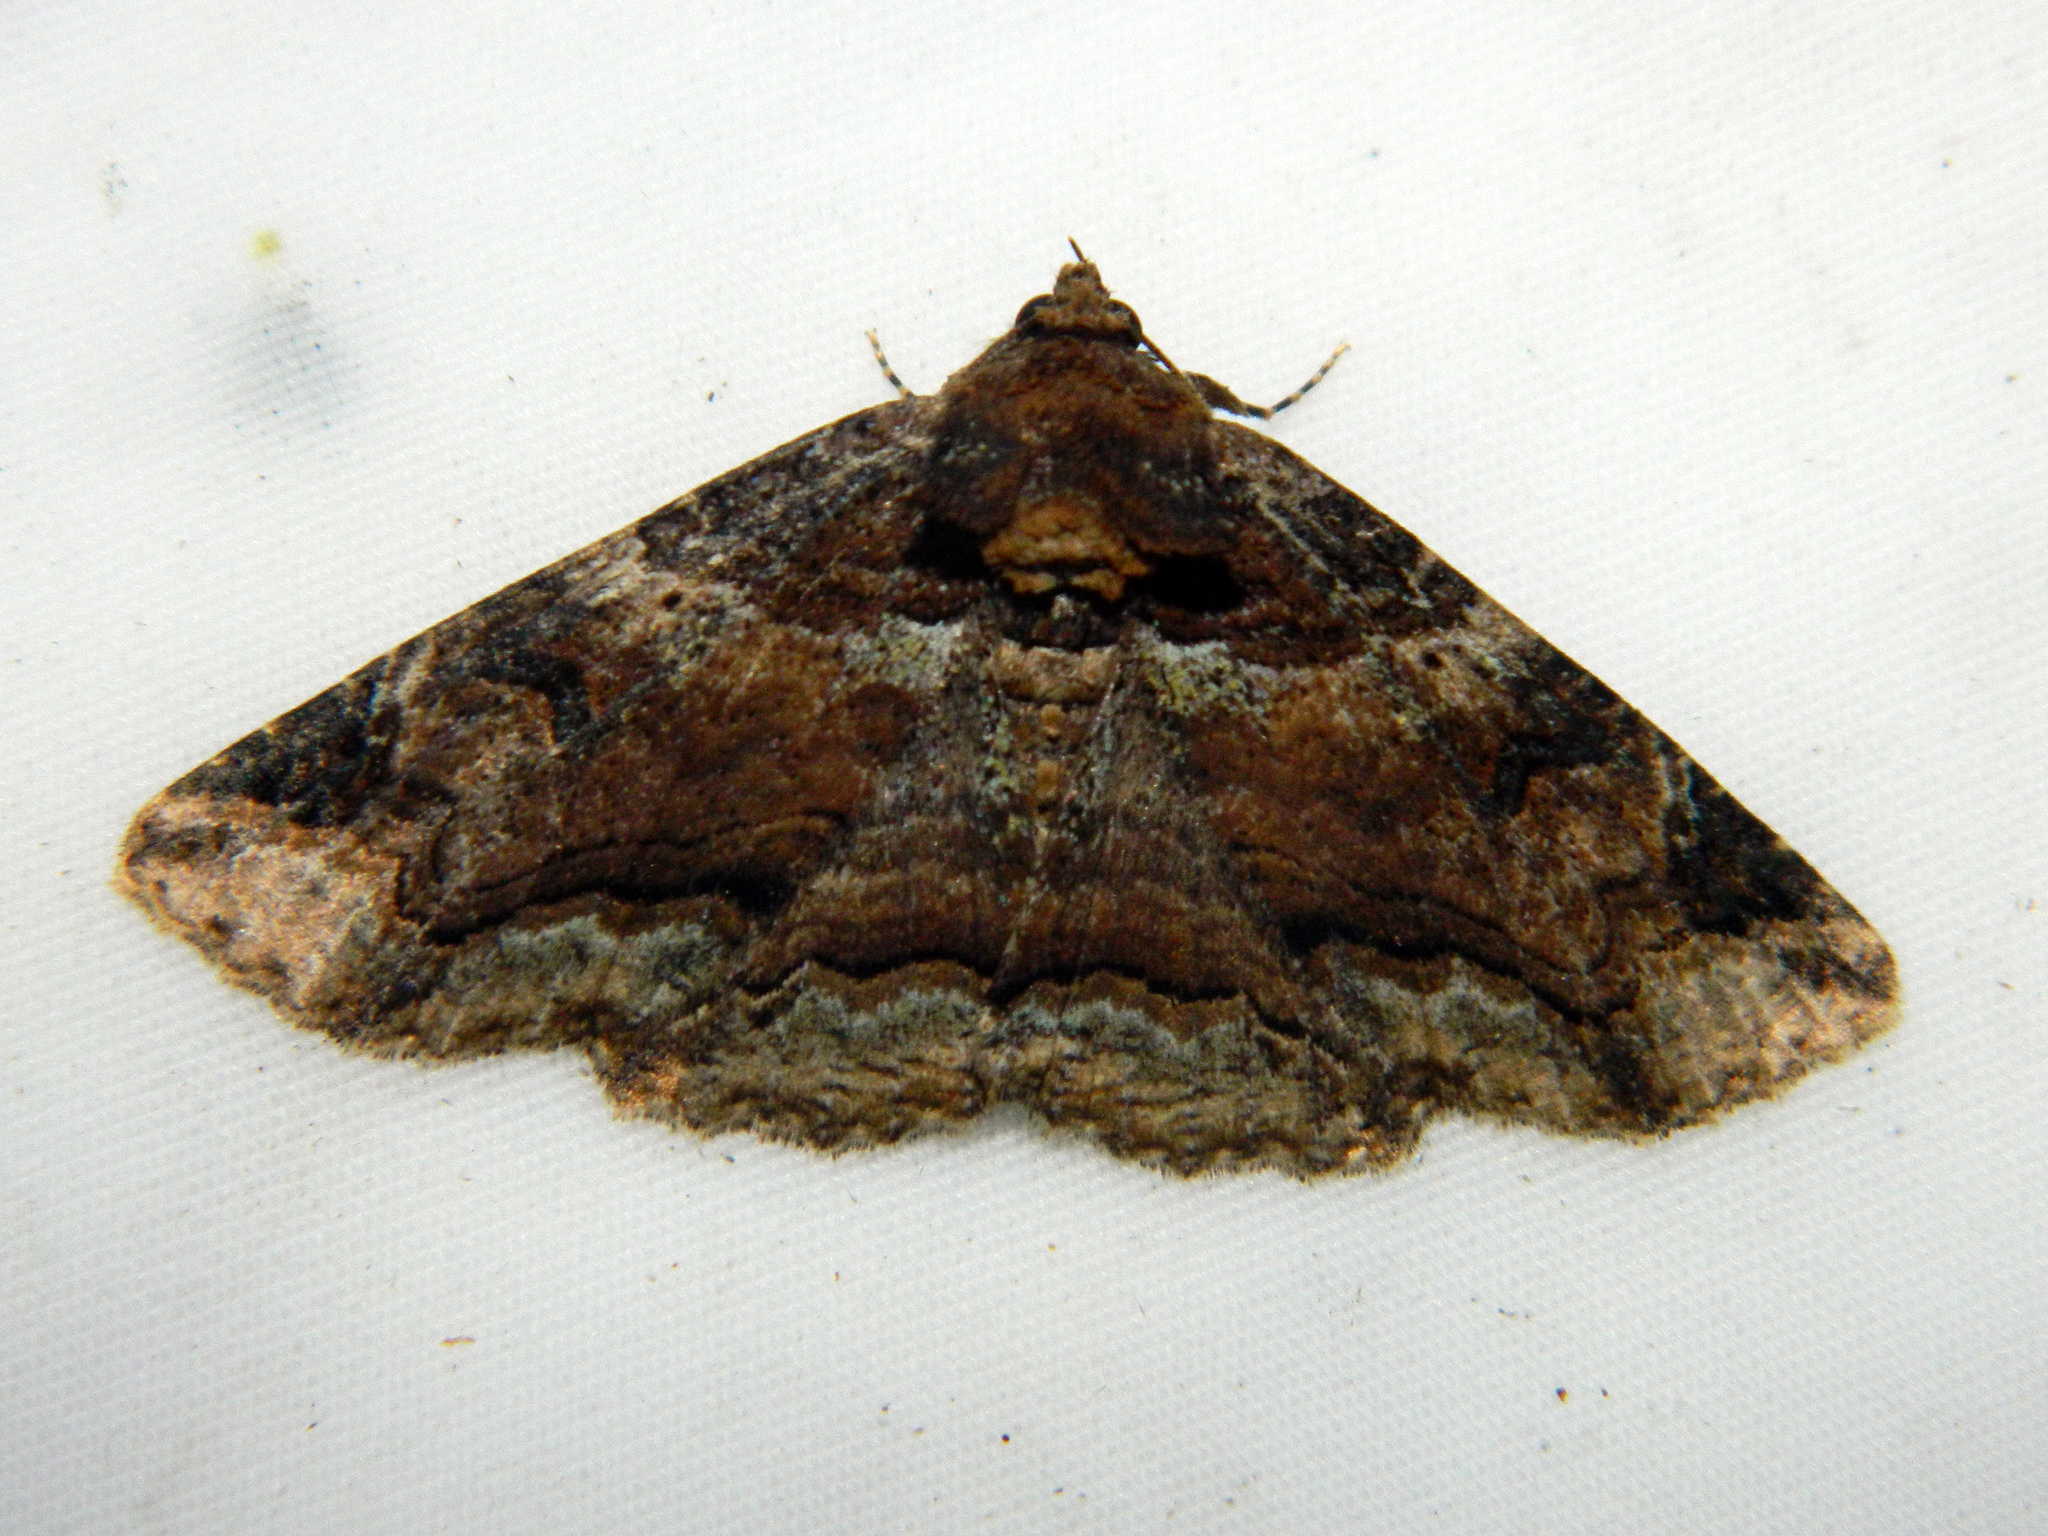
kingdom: Animalia
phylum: Arthropoda
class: Insecta
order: Lepidoptera
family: Erebidae
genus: Zale
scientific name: Zale minerea
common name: Colorful zale moth
